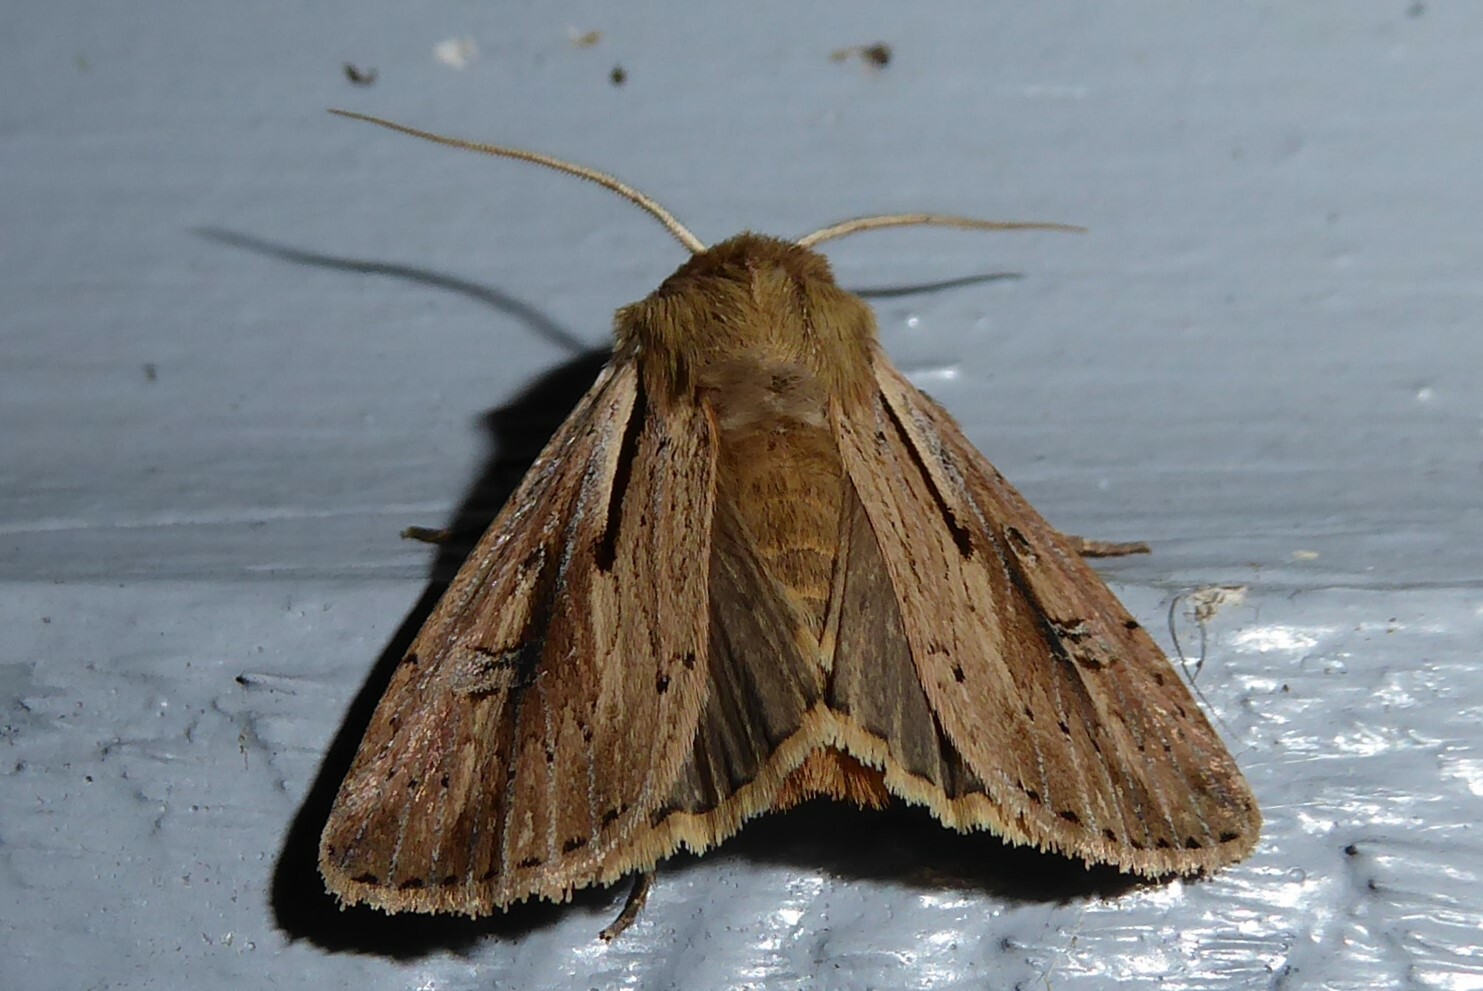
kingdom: Animalia
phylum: Arthropoda
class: Insecta
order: Lepidoptera
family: Noctuidae
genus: Ichneutica
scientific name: Ichneutica propria
